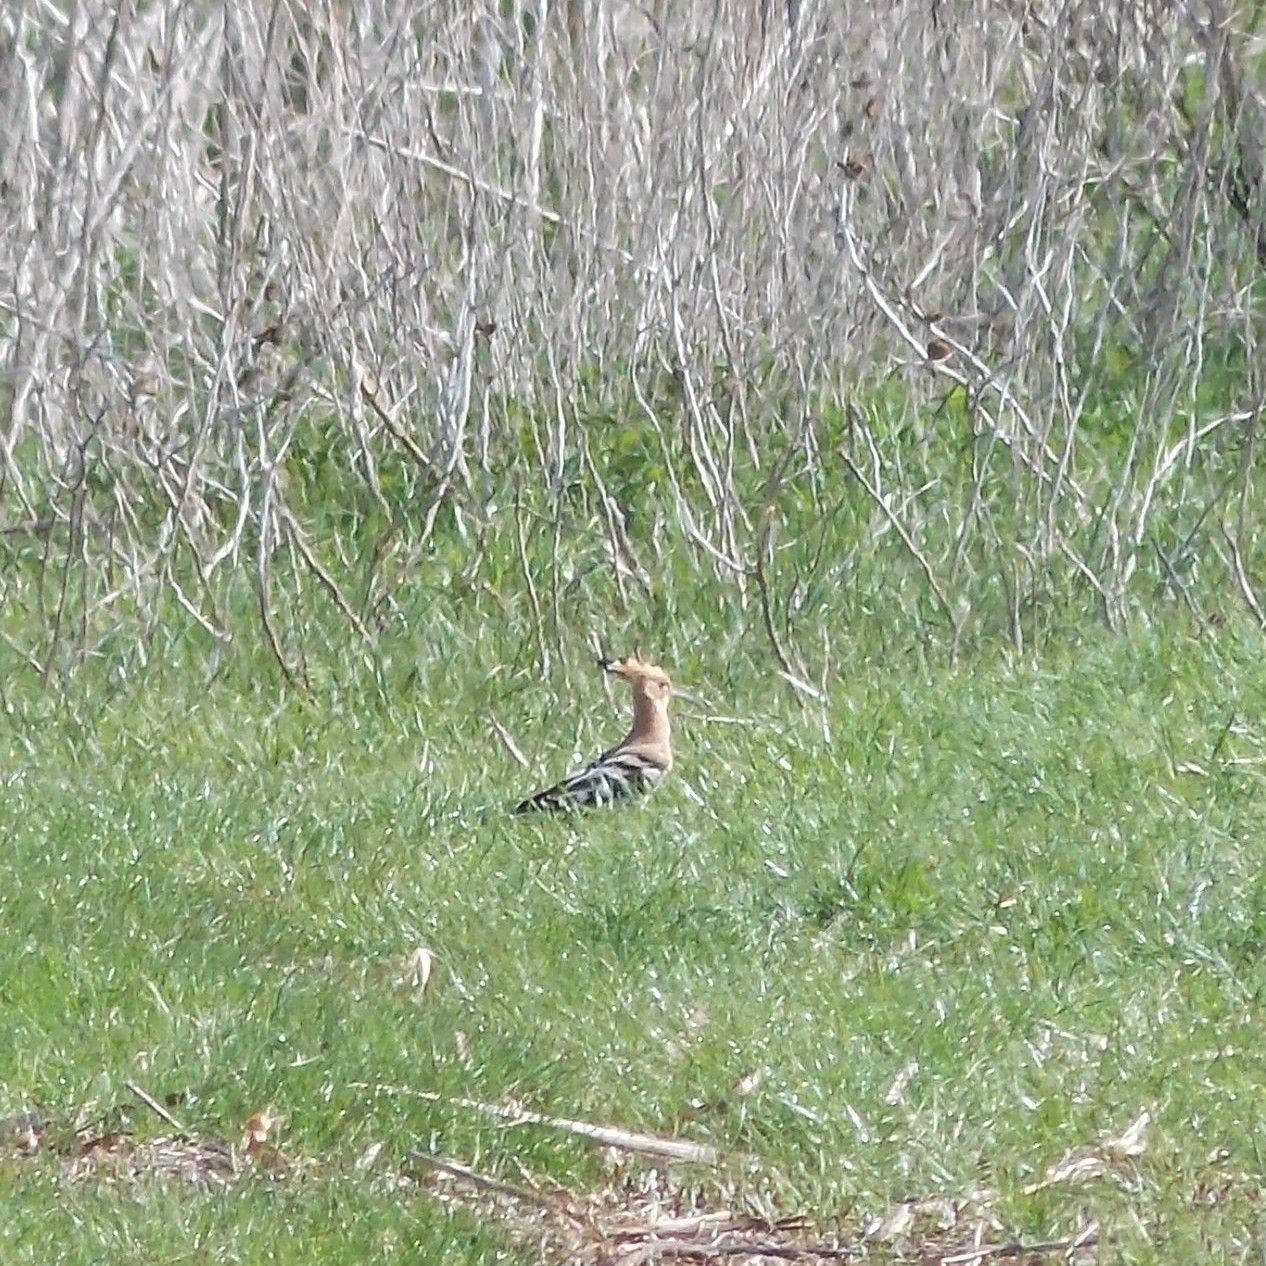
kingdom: Animalia
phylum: Chordata
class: Aves
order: Bucerotiformes
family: Upupidae
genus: Upupa
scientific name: Upupa epops
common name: Eurasian hoopoe
